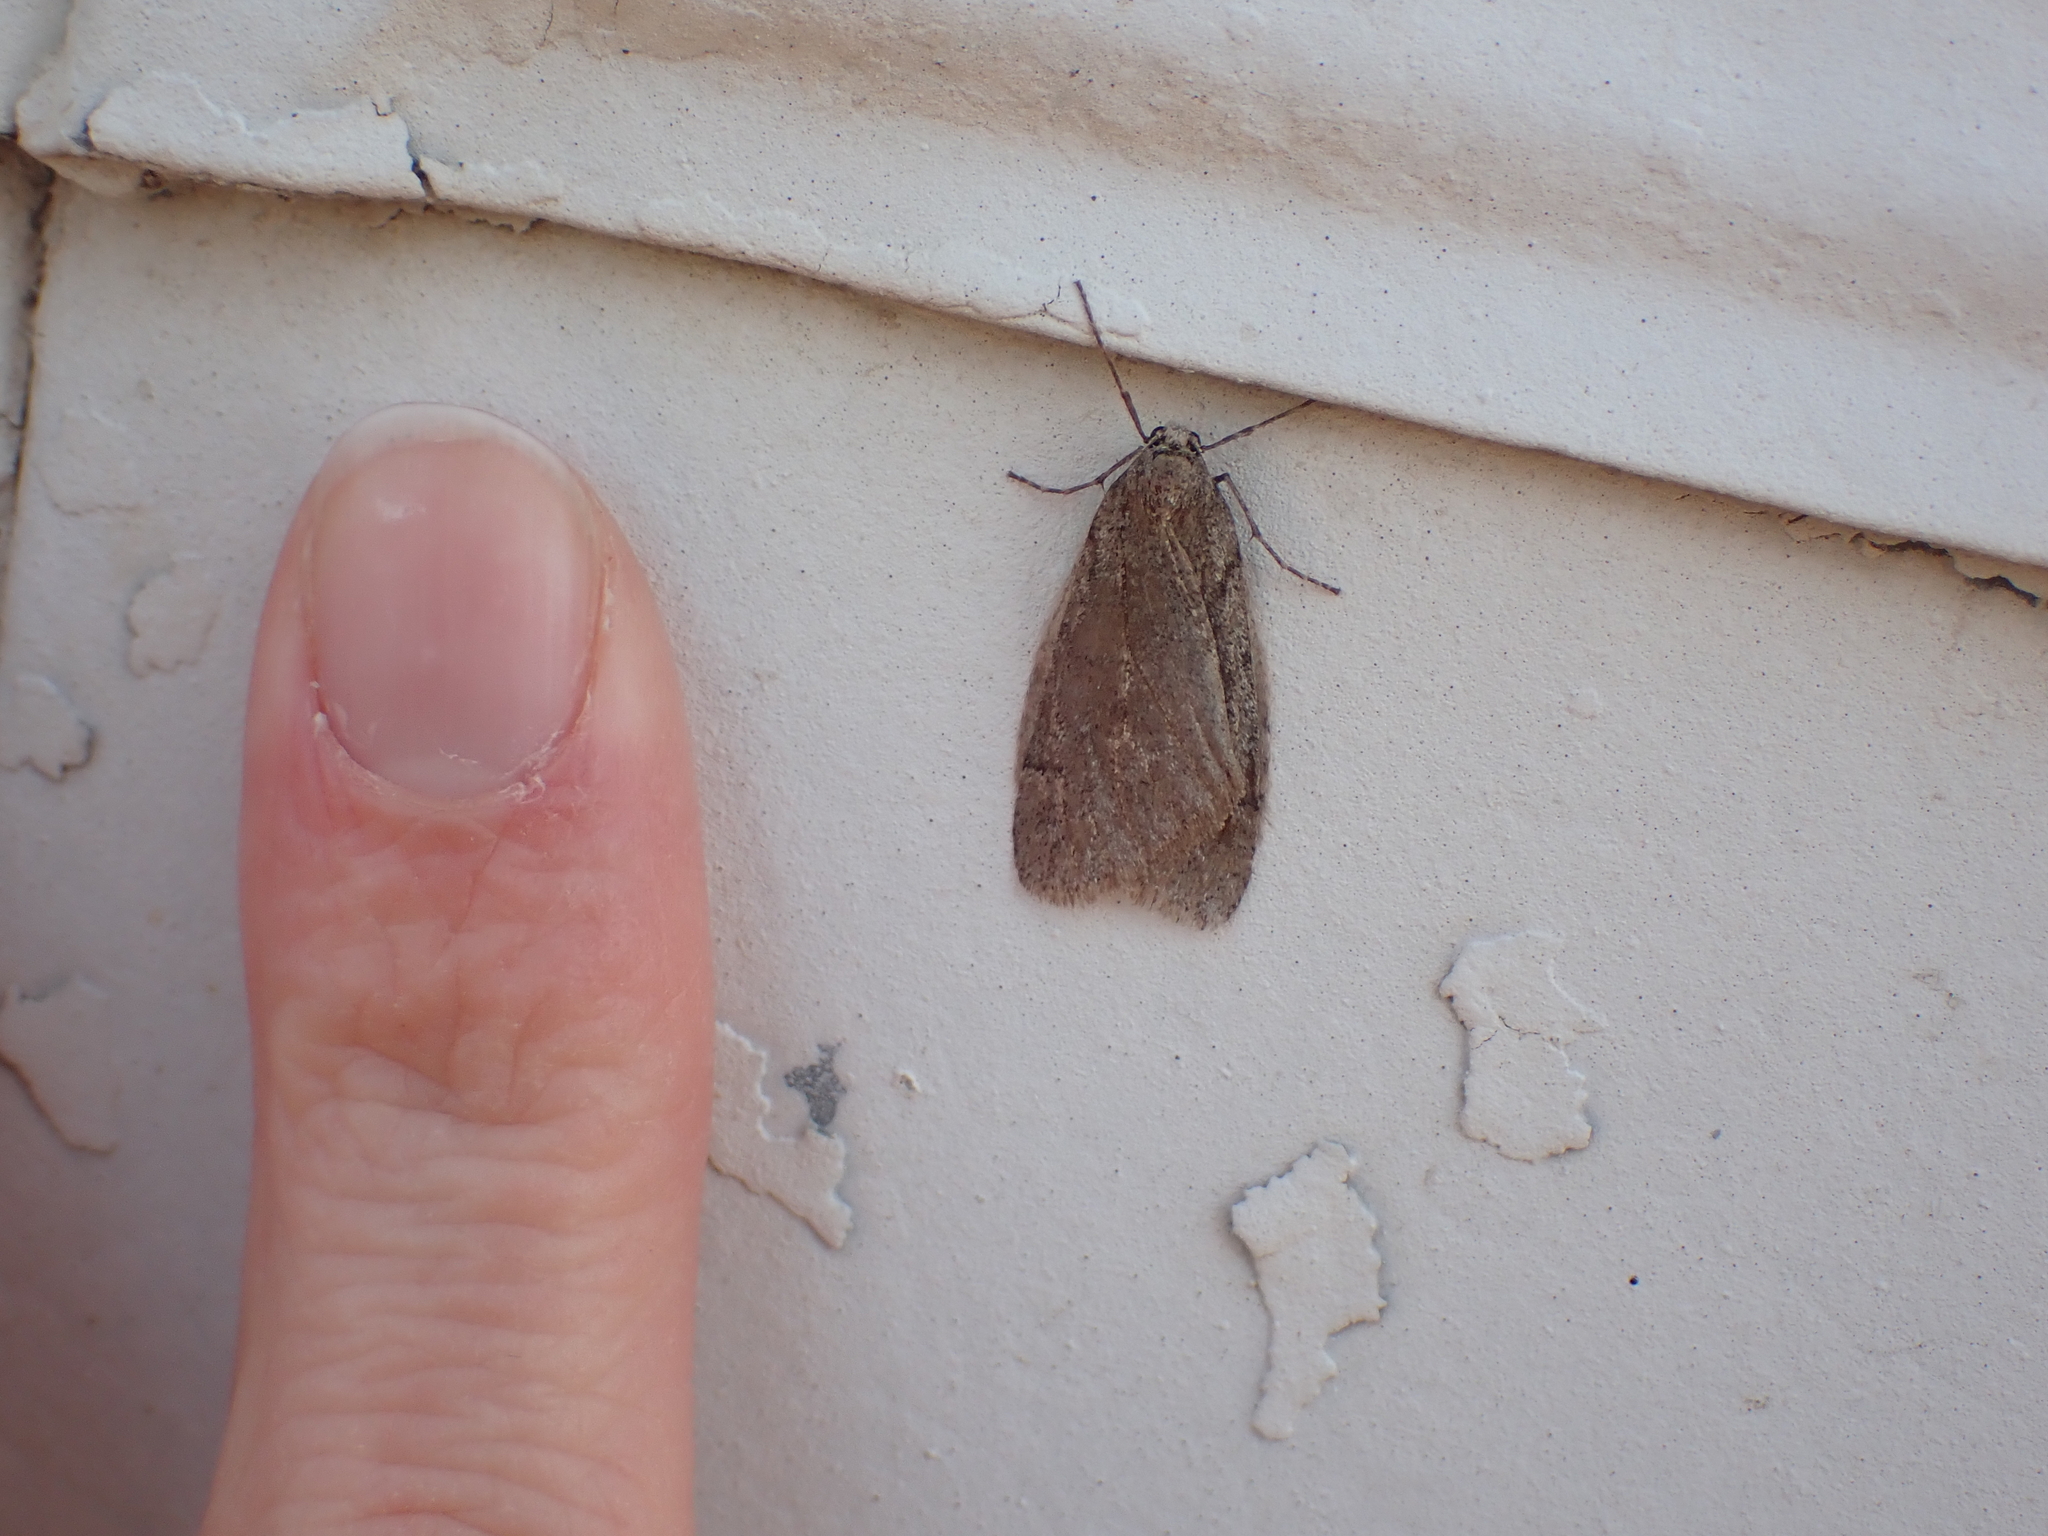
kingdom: Animalia
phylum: Arthropoda
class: Insecta
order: Lepidoptera
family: Geometridae
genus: Paleacrita
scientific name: Paleacrita vernata
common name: Spring cankerworm
